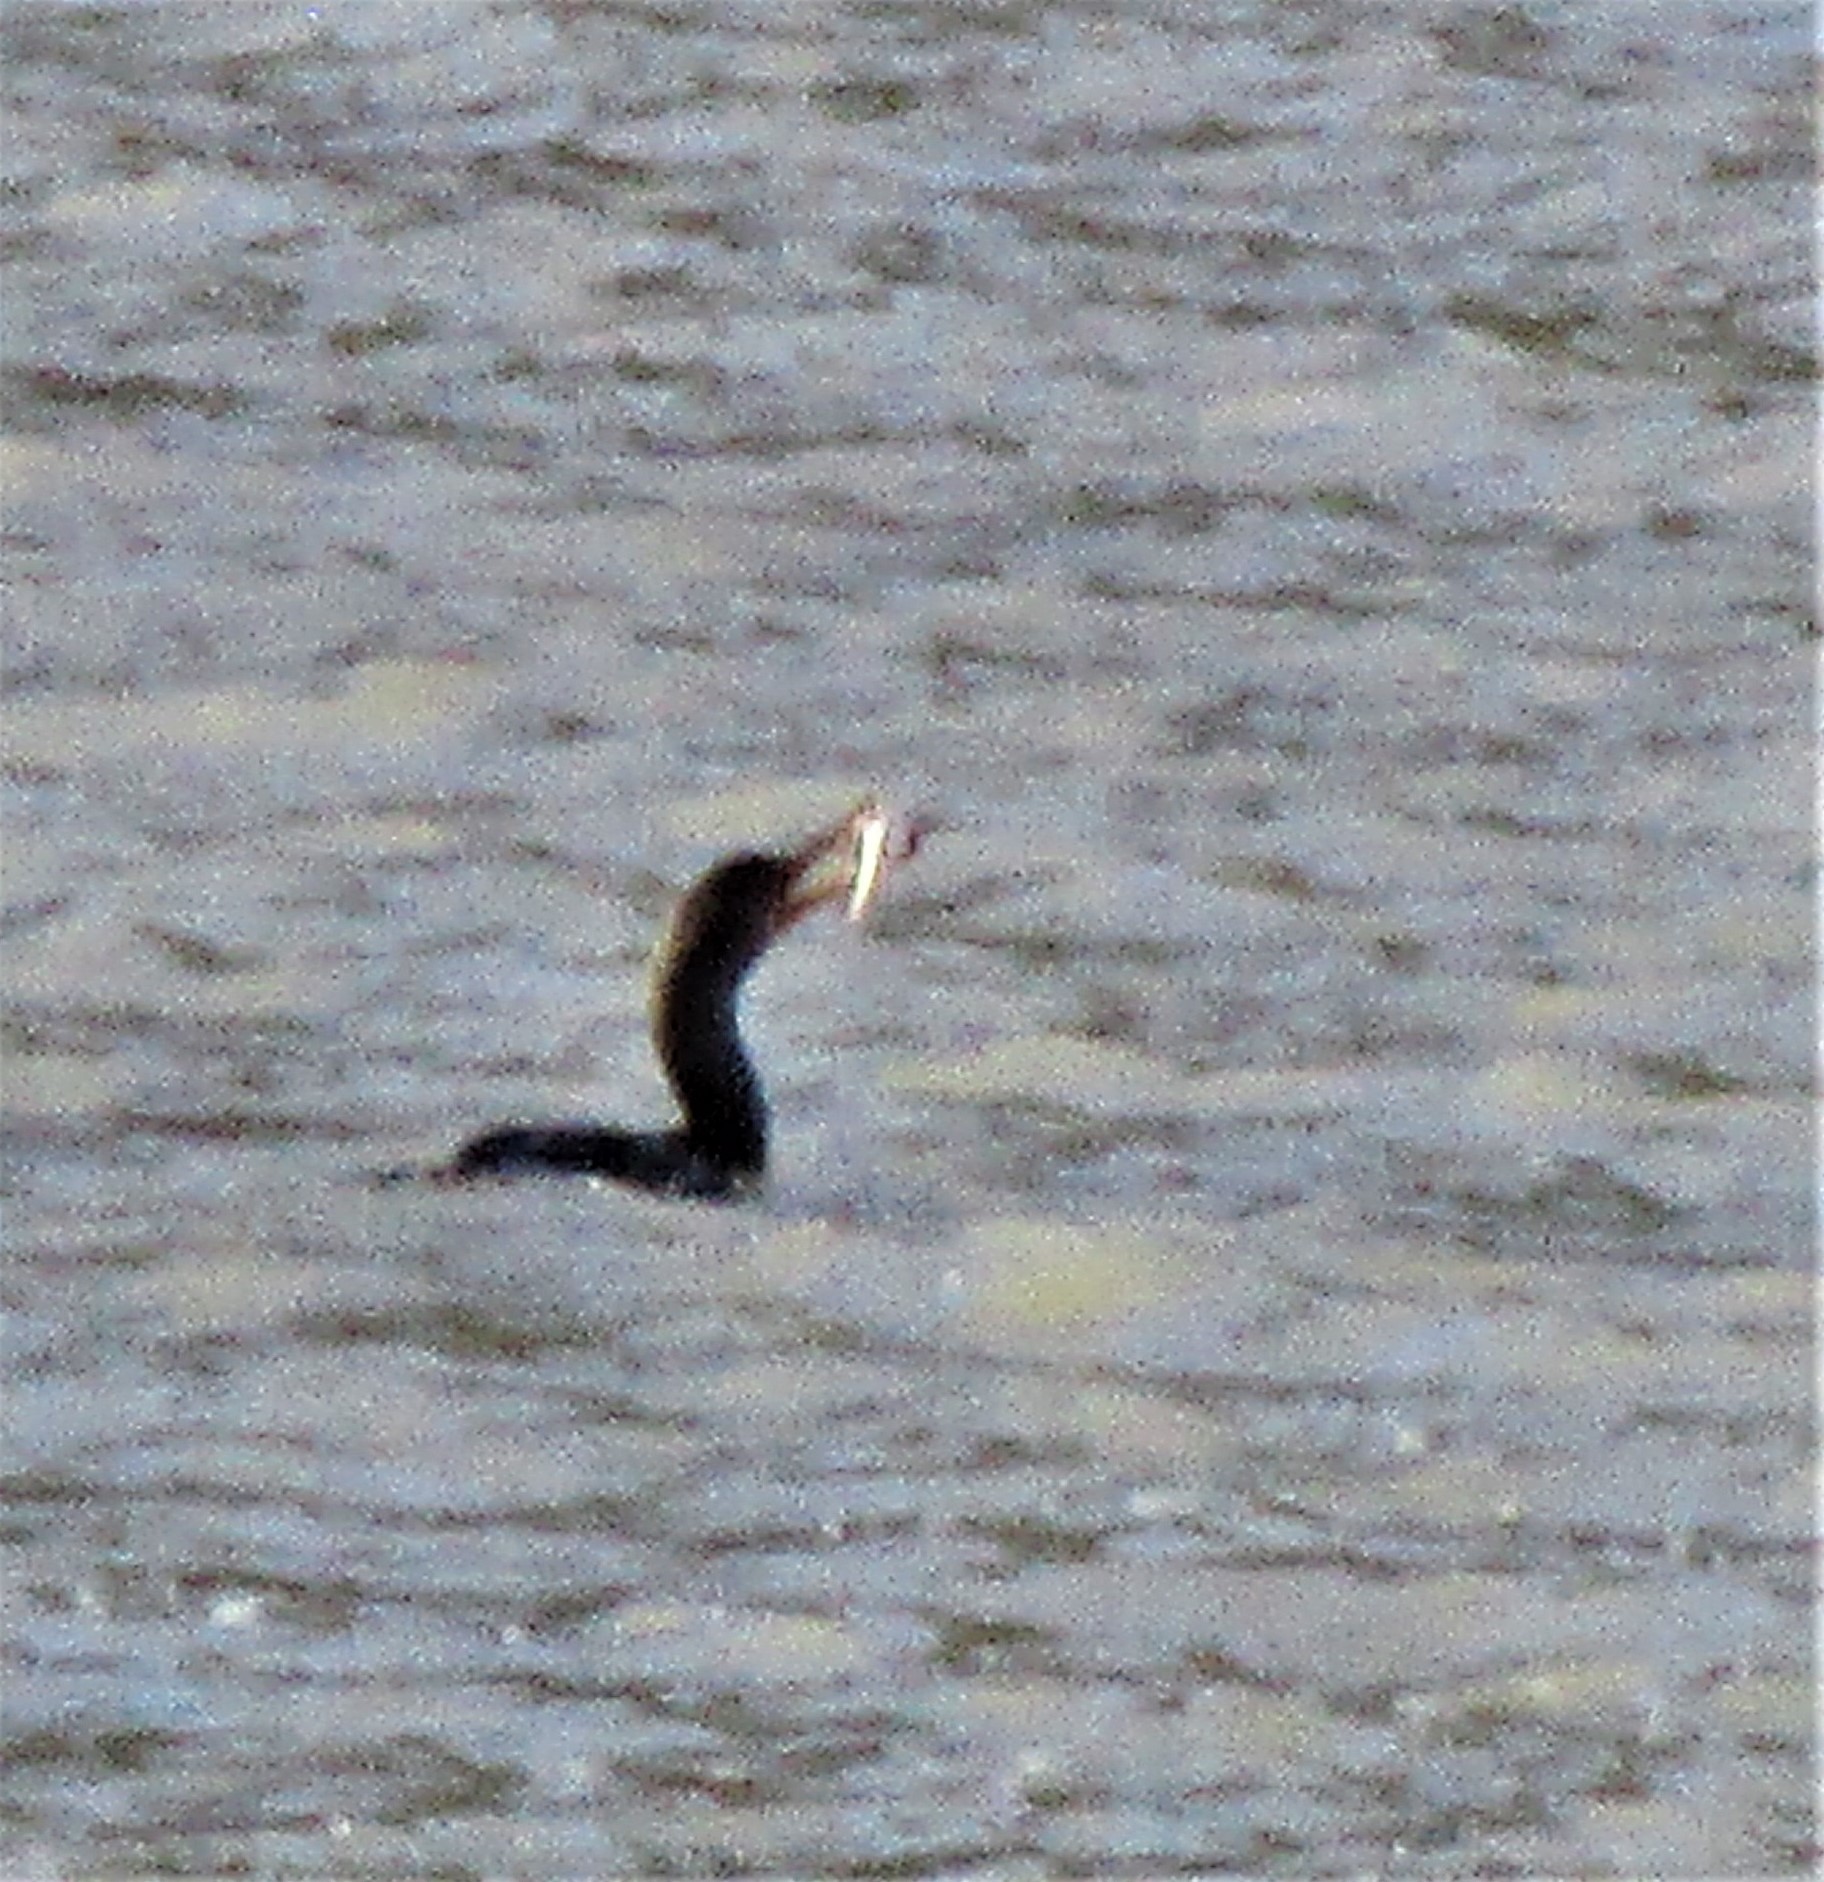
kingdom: Animalia
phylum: Chordata
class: Aves
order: Suliformes
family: Phalacrocoracidae
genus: Phalacrocorax
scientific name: Phalacrocorax auritus
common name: Double-crested cormorant
